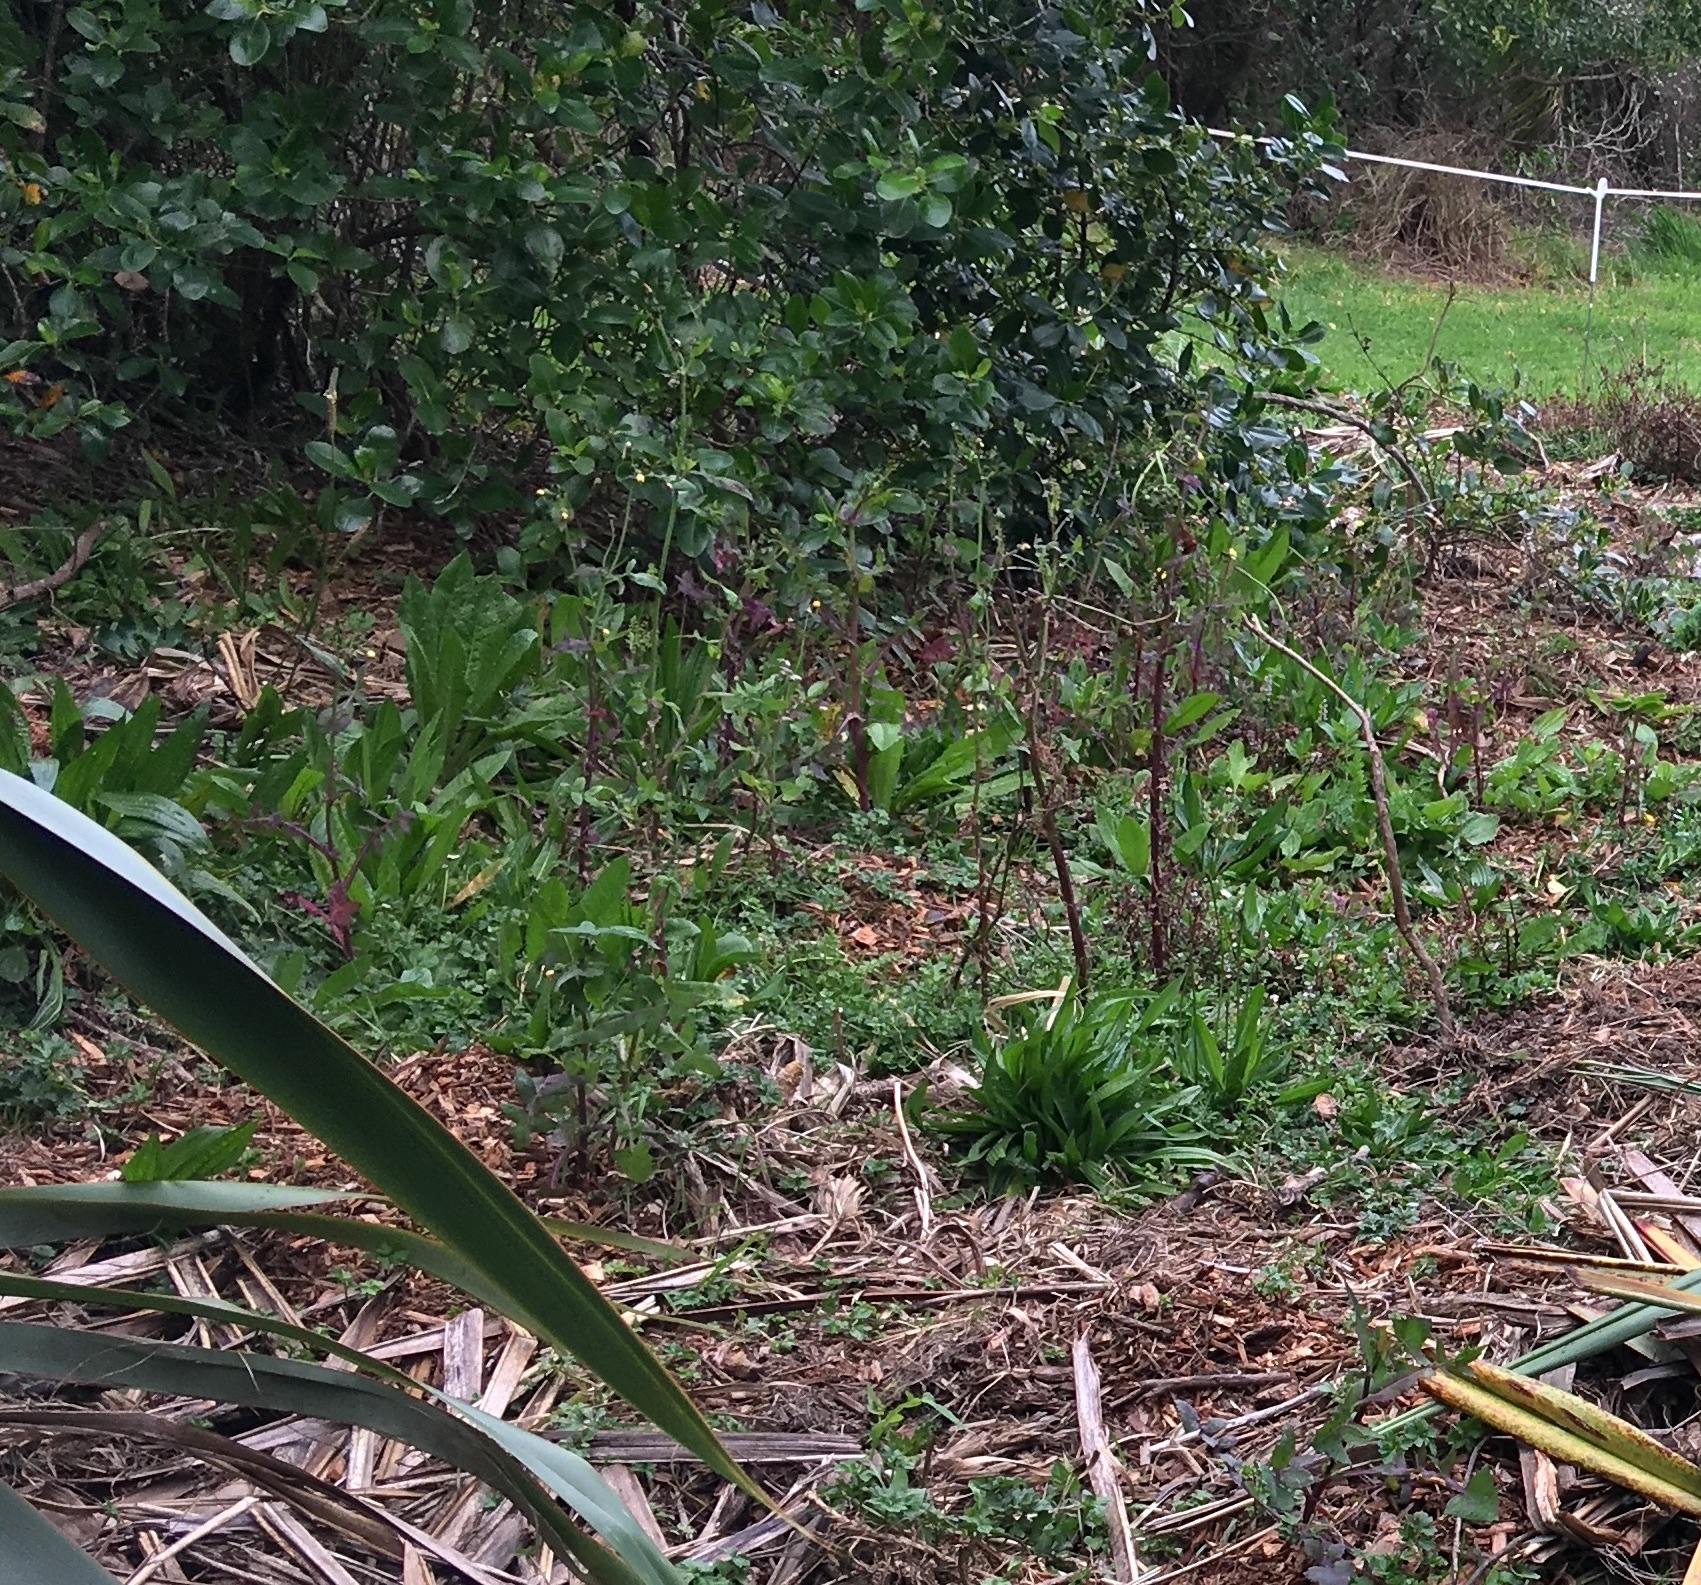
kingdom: Plantae
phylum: Tracheophyta
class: Magnoliopsida
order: Asterales
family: Asteraceae
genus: Helminthotheca
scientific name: Helminthotheca echioides
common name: Ox-tongue
